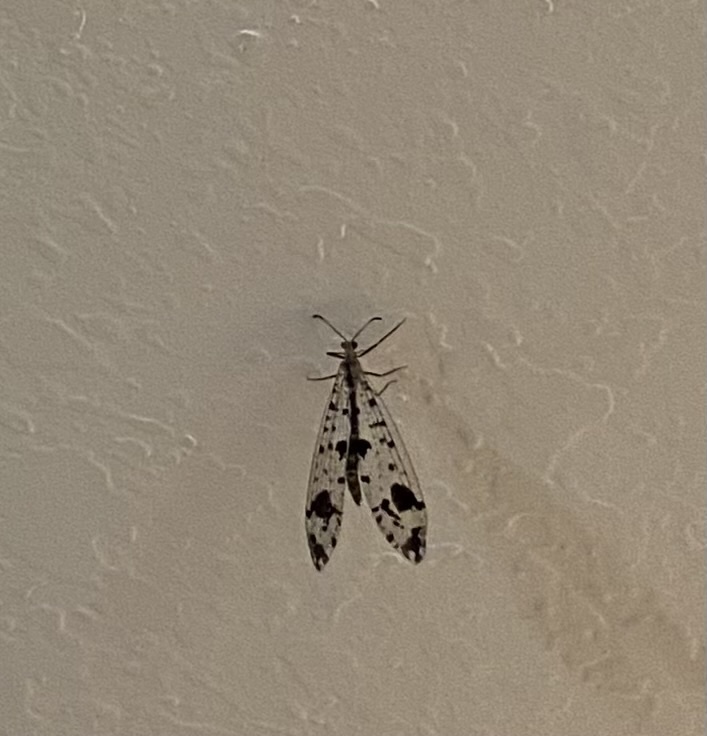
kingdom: Animalia
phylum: Arthropoda
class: Insecta
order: Neuroptera
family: Myrmeleontidae
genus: Dendroleon
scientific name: Dendroleon obsoletus
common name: Eastern spotted-winged antlion
